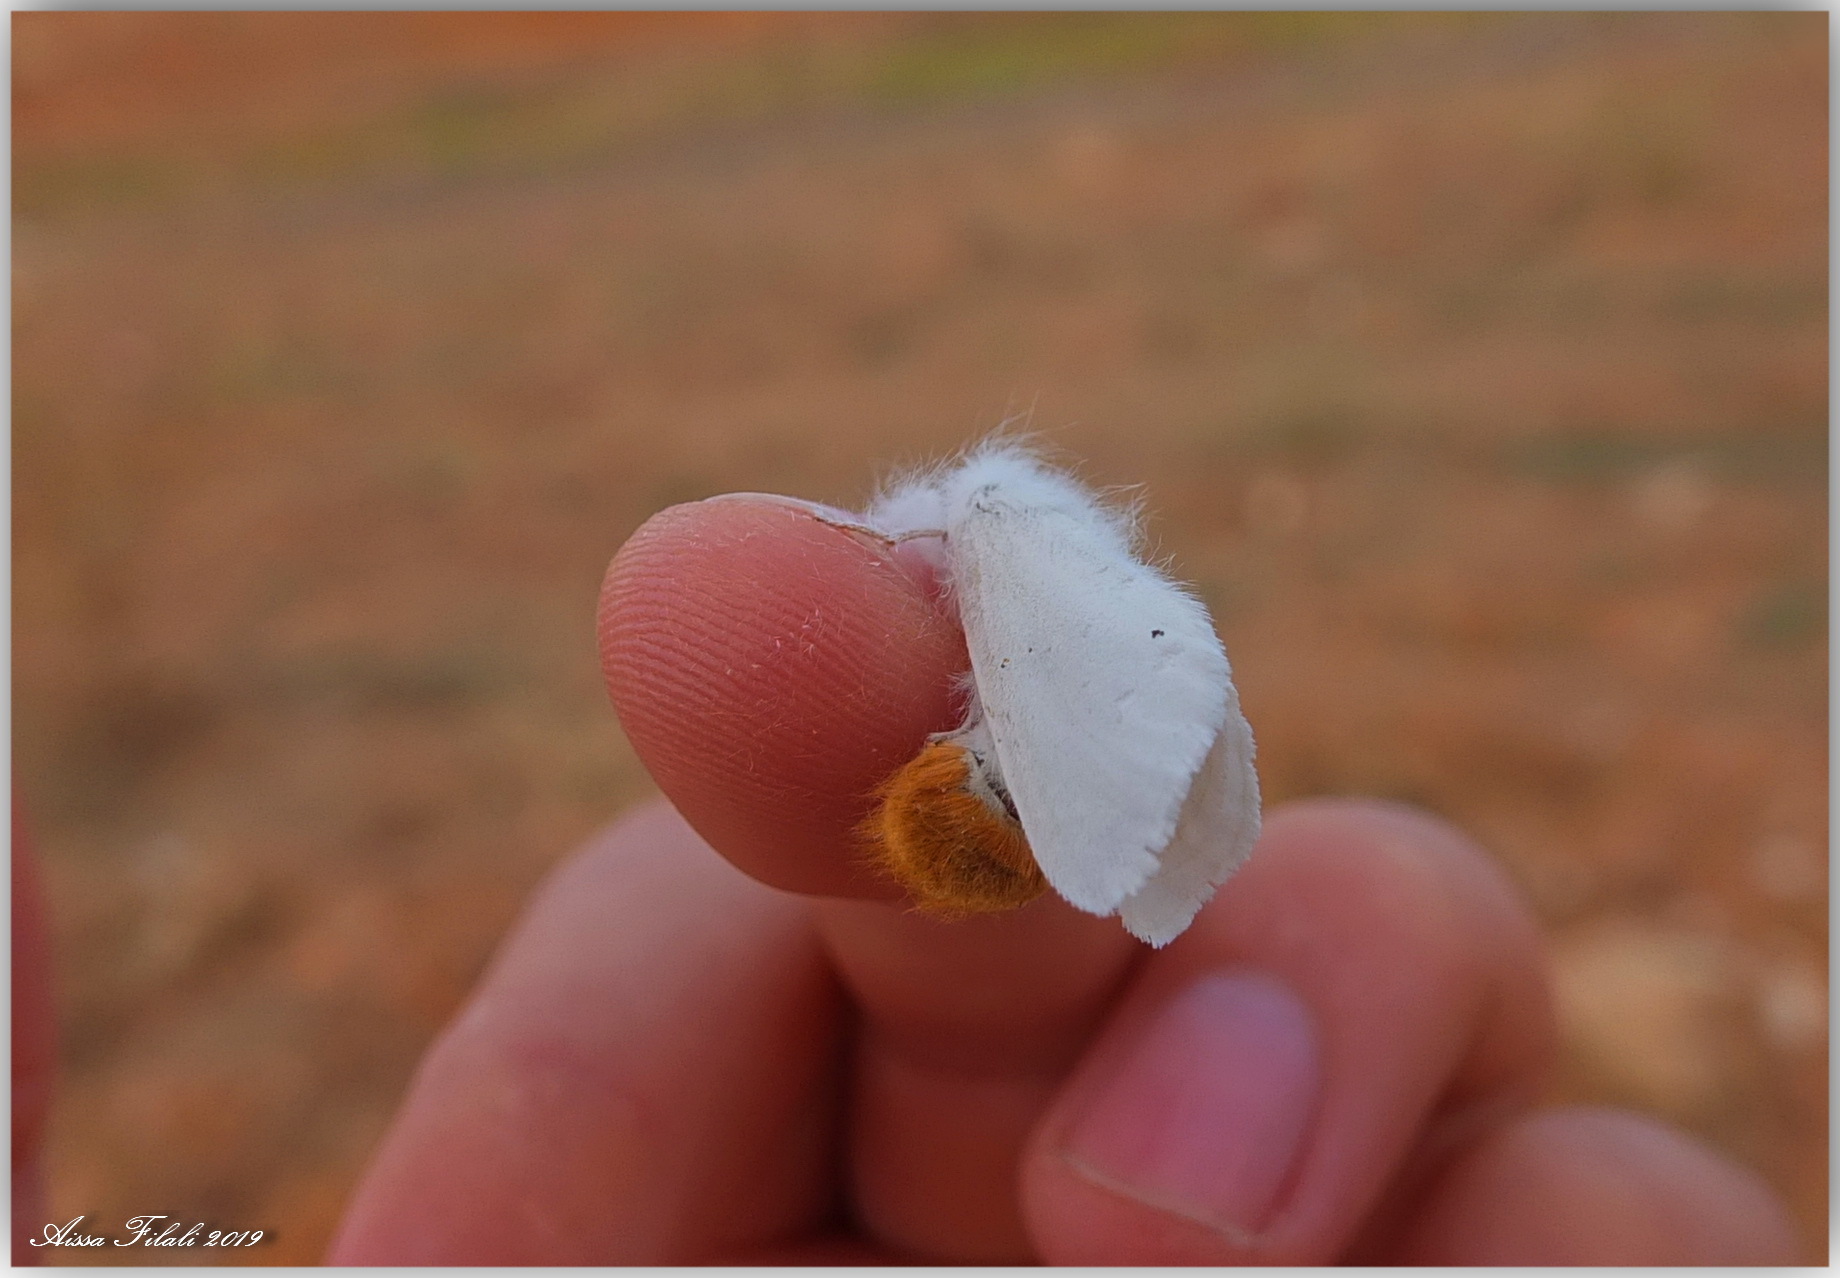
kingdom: Animalia
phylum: Arthropoda
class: Insecta
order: Lepidoptera
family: Erebidae
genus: Euproctis
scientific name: Euproctis chrysorrhoea
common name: Brown-tail
